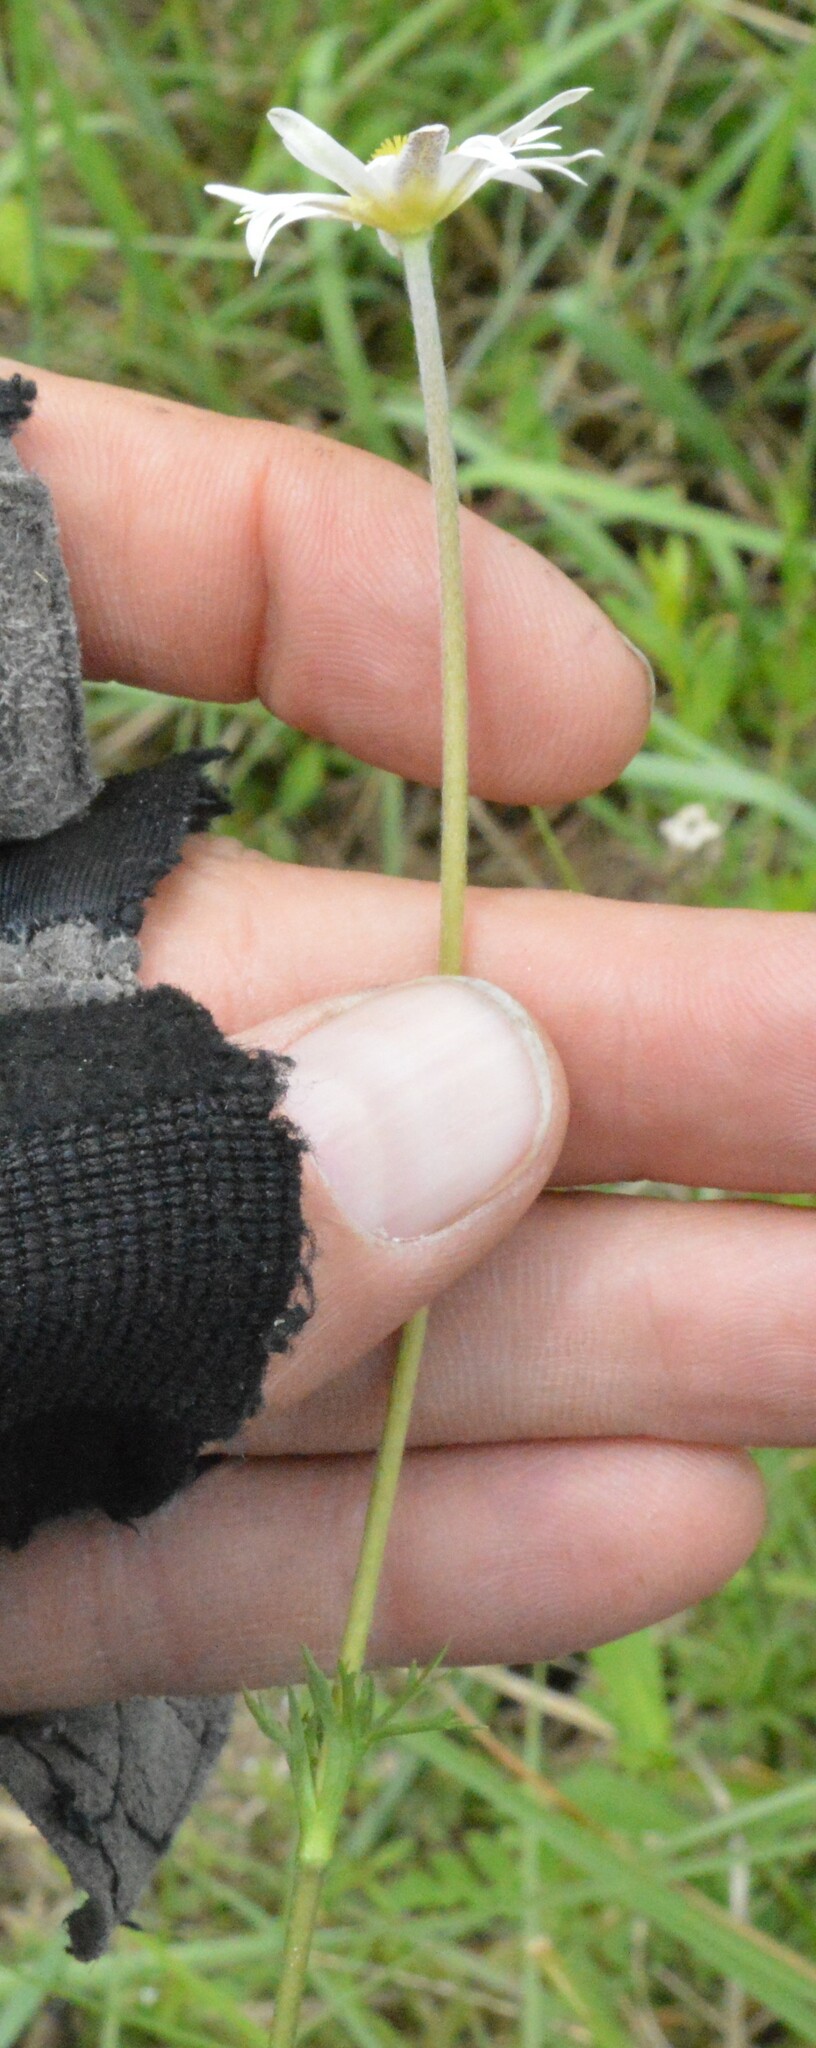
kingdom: Plantae
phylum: Tracheophyta
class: Magnoliopsida
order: Ranunculales
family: Ranunculaceae
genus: Anemone
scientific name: Anemone caroliniana
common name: Carolina anemone
